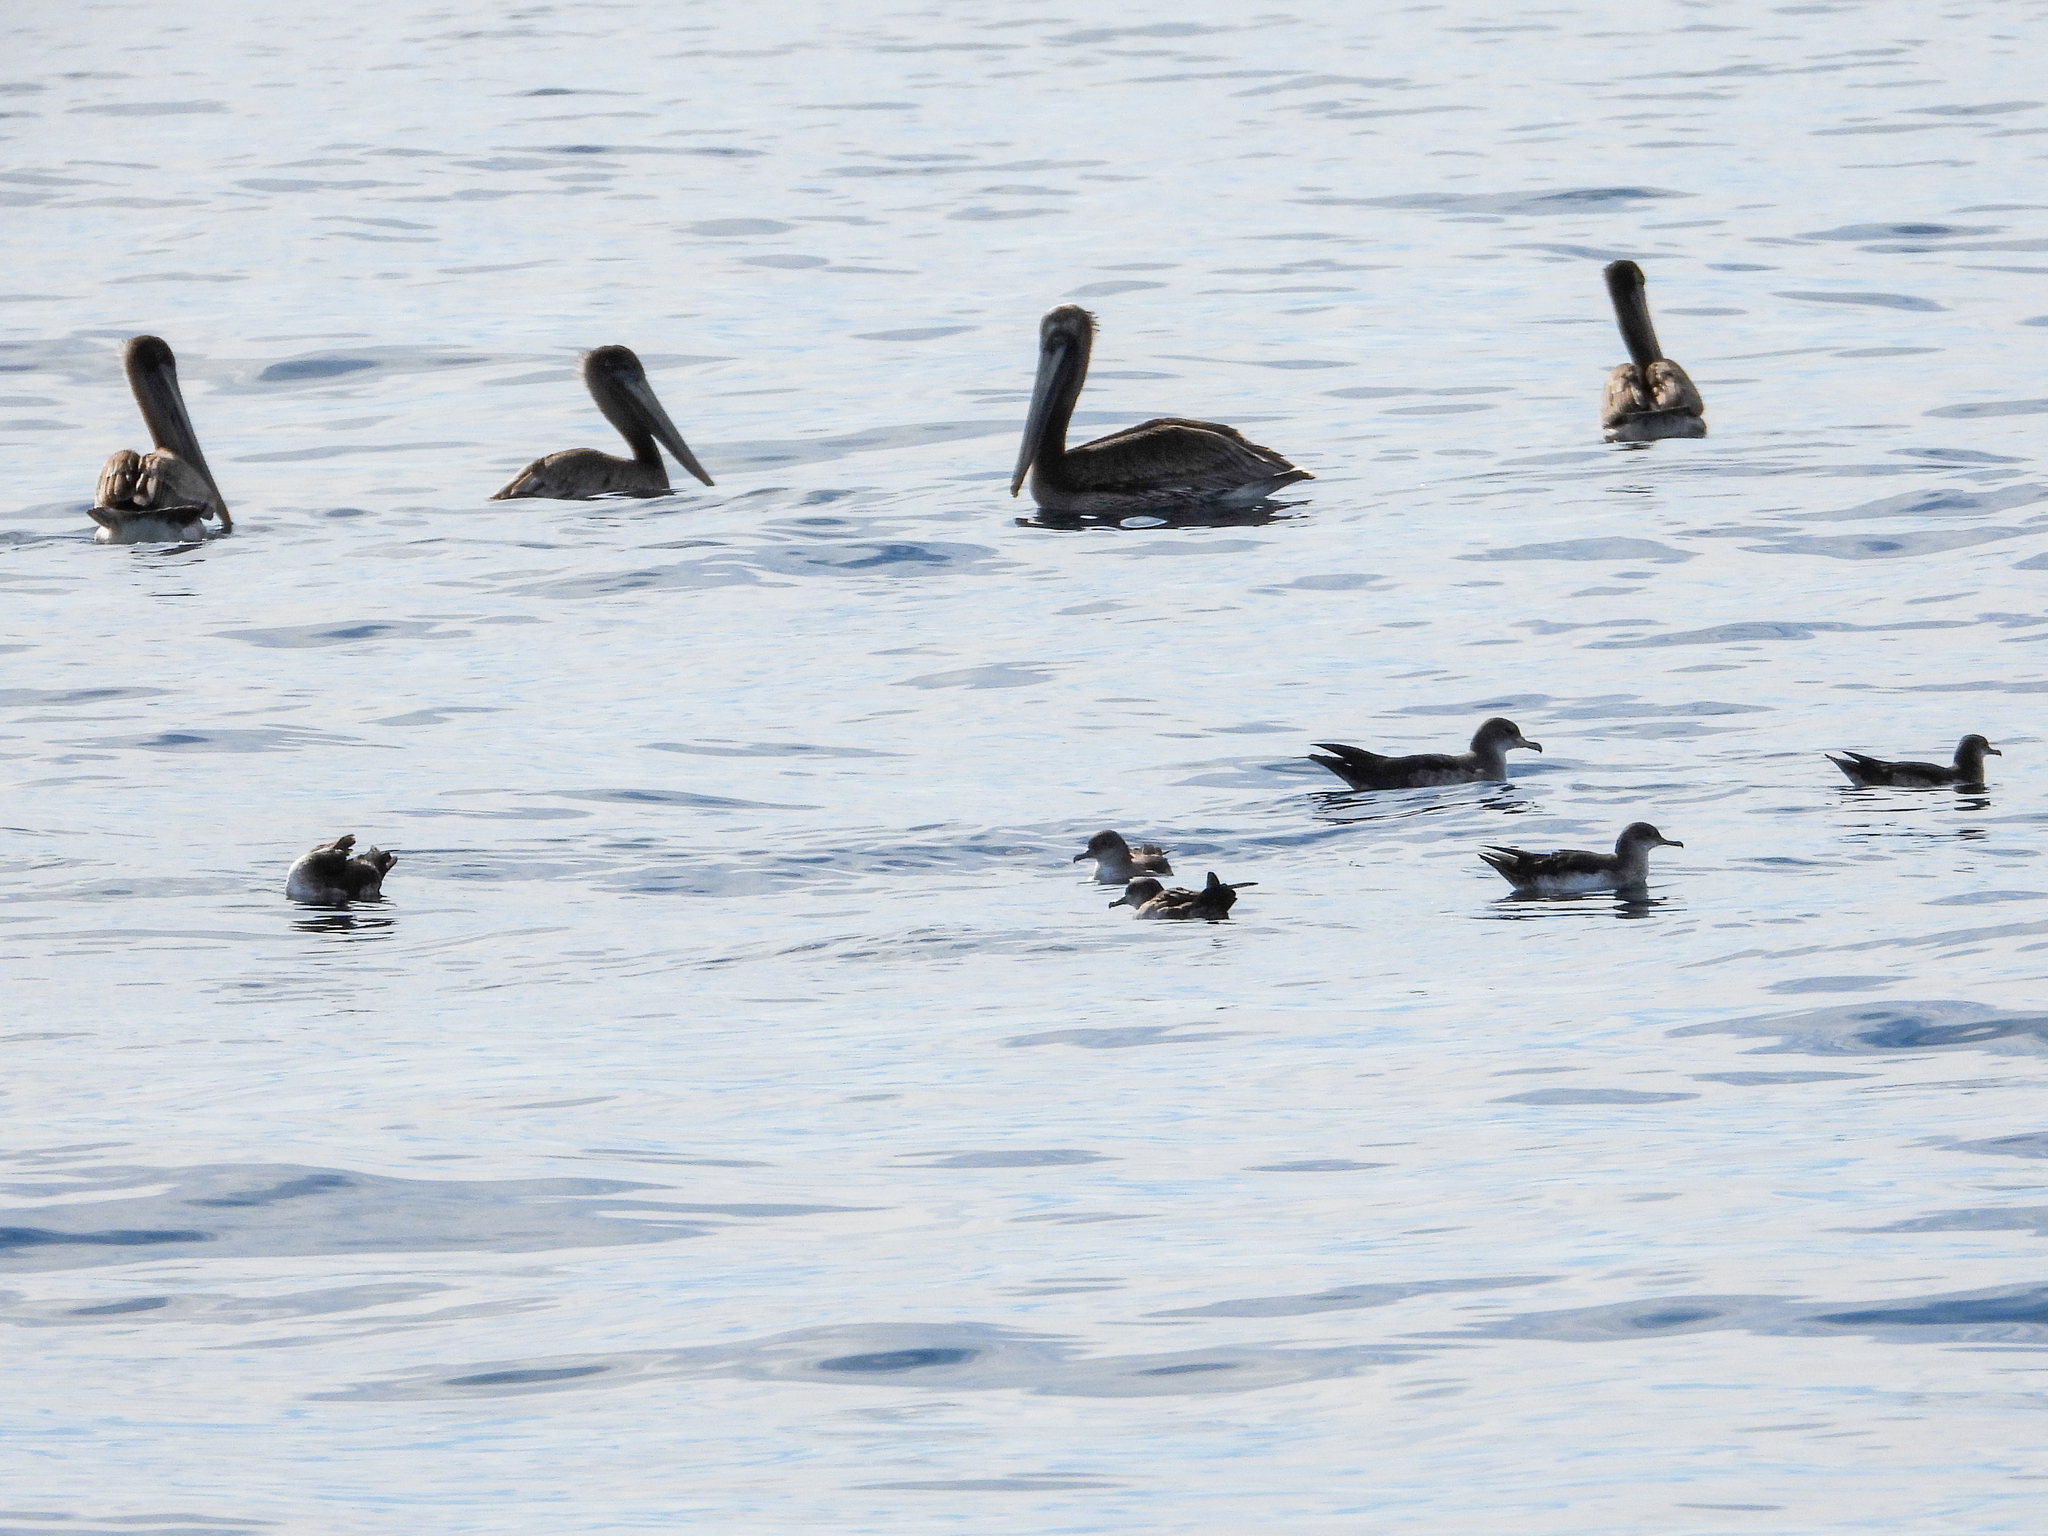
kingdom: Animalia
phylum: Chordata
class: Aves
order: Procellariiformes
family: Procellariidae
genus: Puffinus
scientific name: Puffinus creatopus
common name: Pink-footed shearwater
